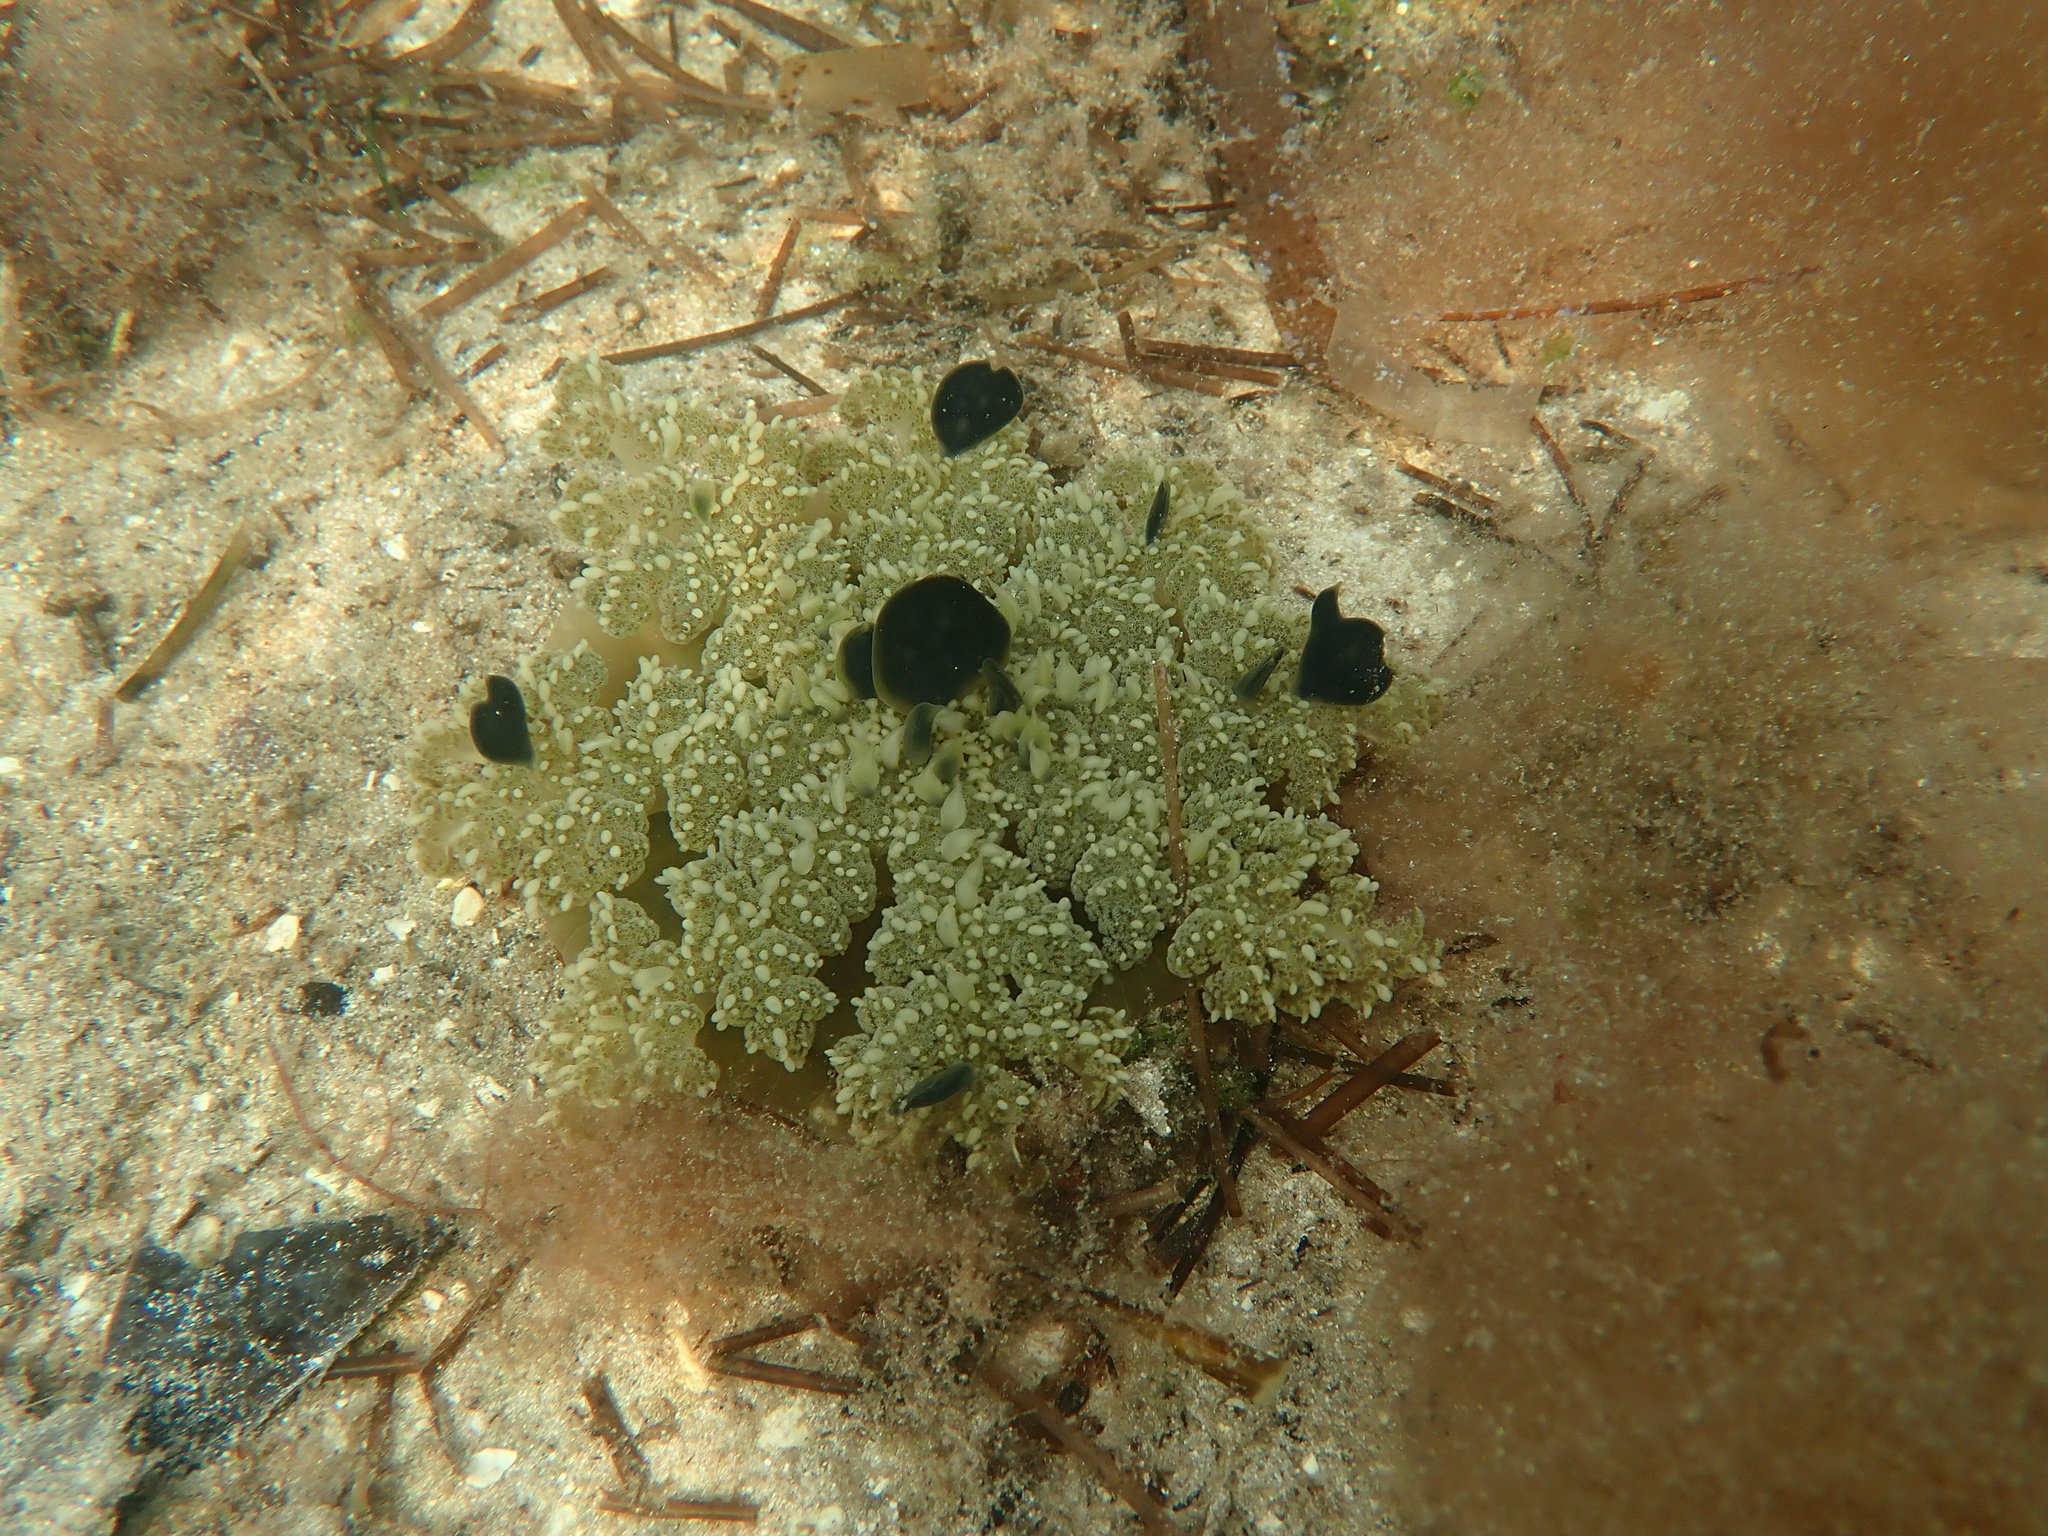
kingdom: Animalia
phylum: Cnidaria
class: Scyphozoa
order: Rhizostomeae
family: Cassiopeidae
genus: Cassiopea
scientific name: Cassiopea andromeda
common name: Upside-down jellyfish
